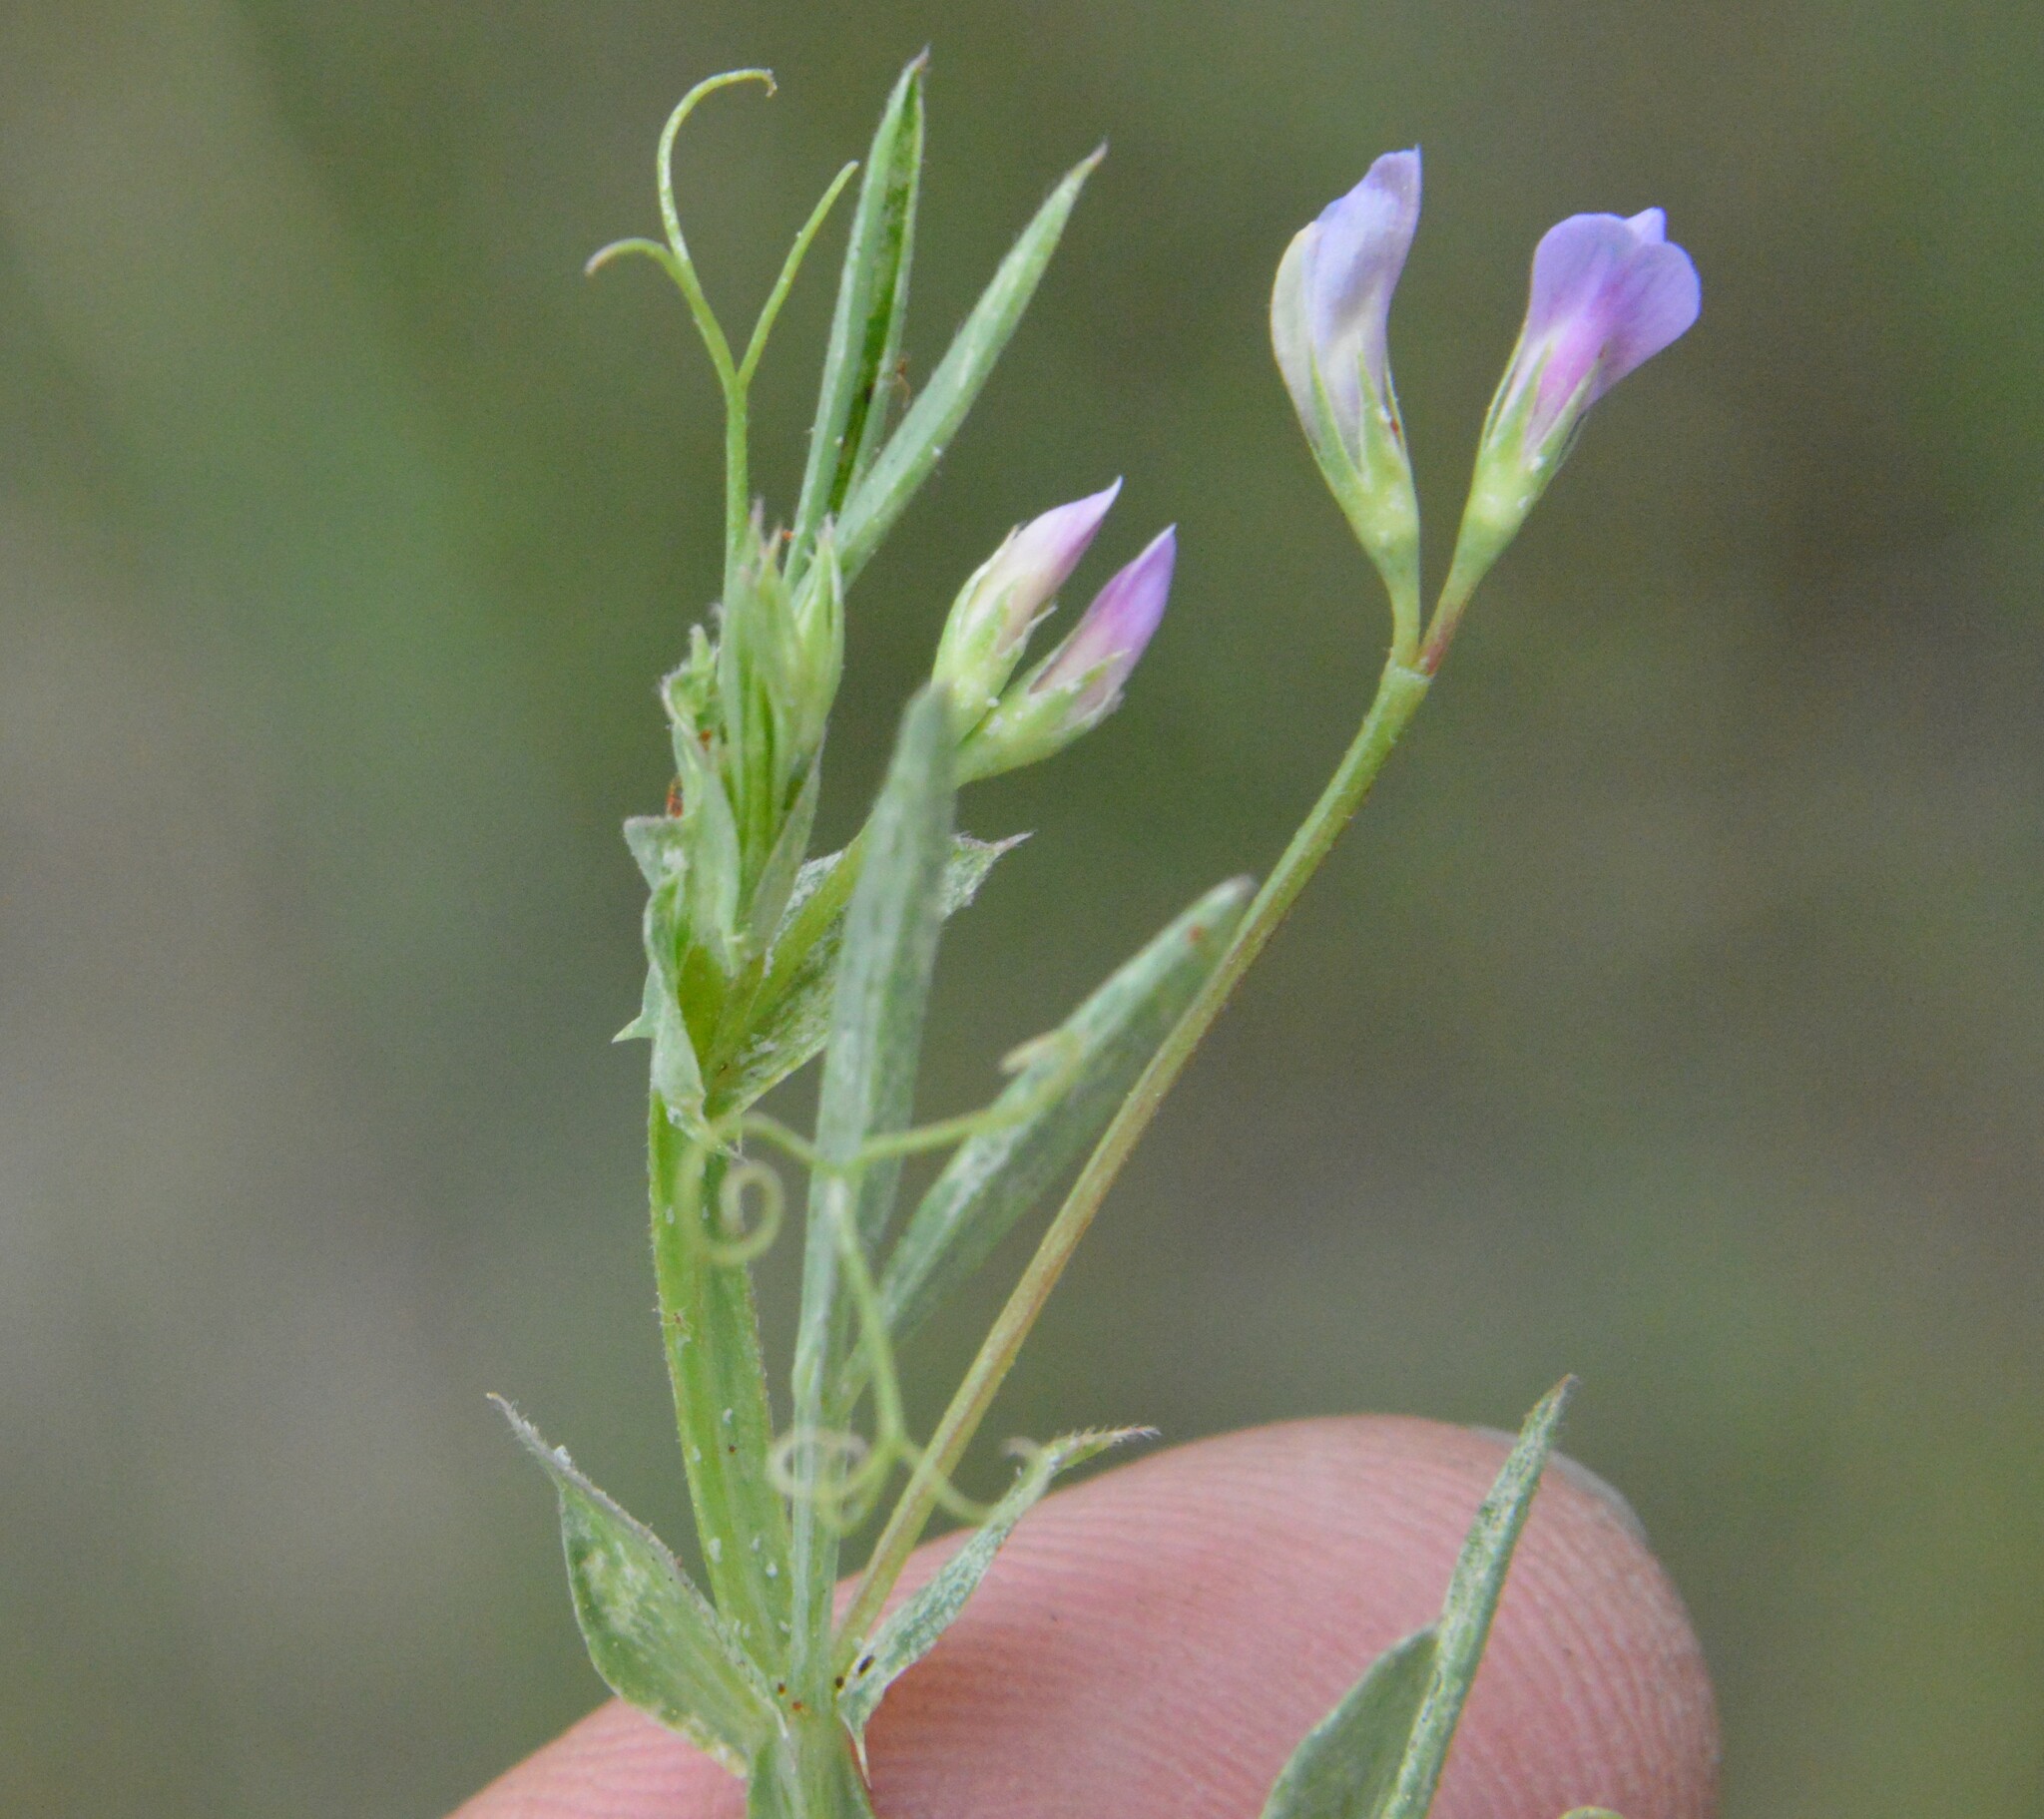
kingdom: Plantae
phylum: Tracheophyta
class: Magnoliopsida
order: Fabales
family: Fabaceae
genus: Lathyrus
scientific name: Lathyrus pusillus
